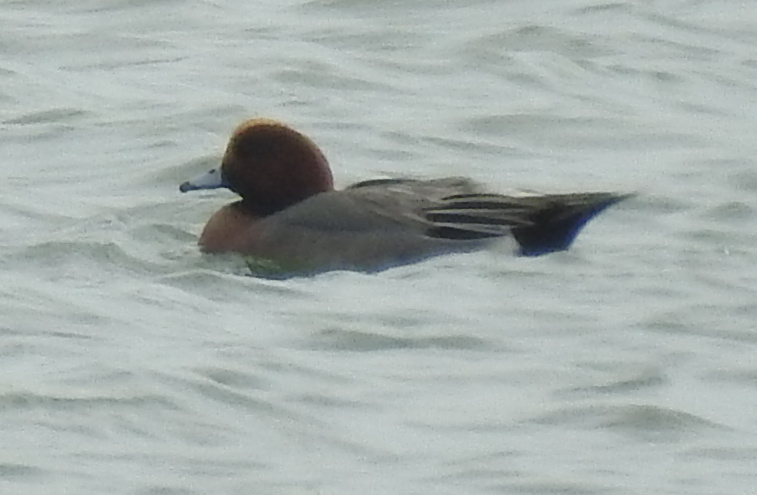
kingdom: Animalia
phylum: Chordata
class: Aves
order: Anseriformes
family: Anatidae
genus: Mareca
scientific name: Mareca penelope
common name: Eurasian wigeon
